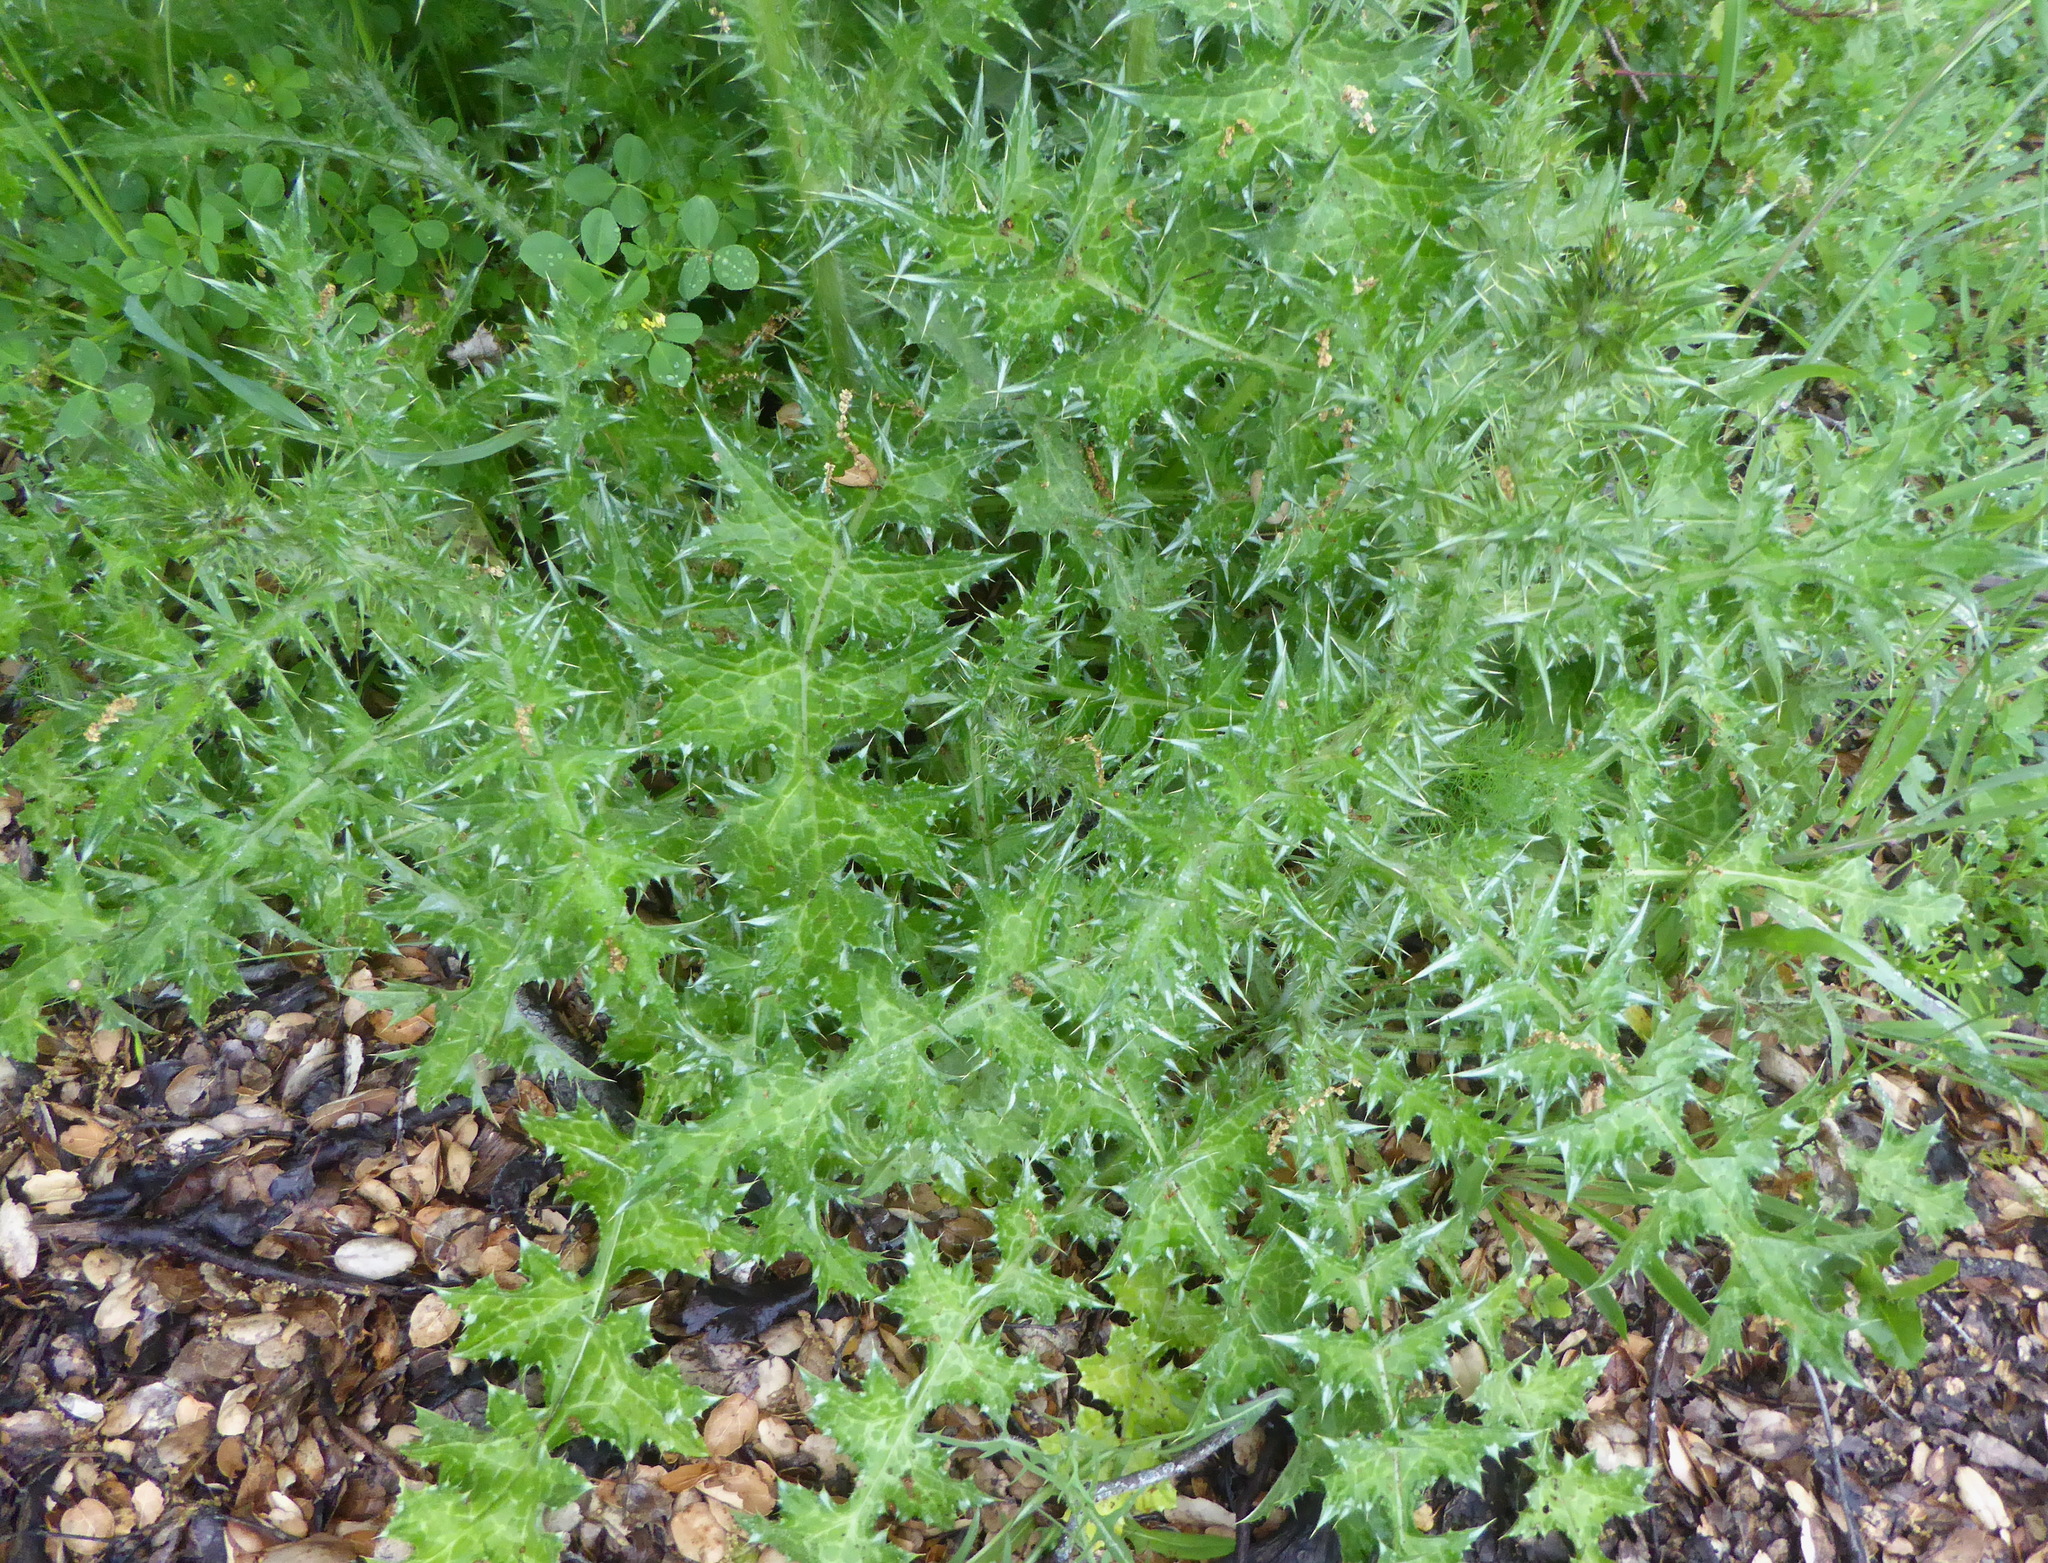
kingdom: Plantae
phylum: Tracheophyta
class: Magnoliopsida
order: Asterales
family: Asteraceae
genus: Carduus
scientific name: Carduus pycnocephalus
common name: Plymouth thistle
